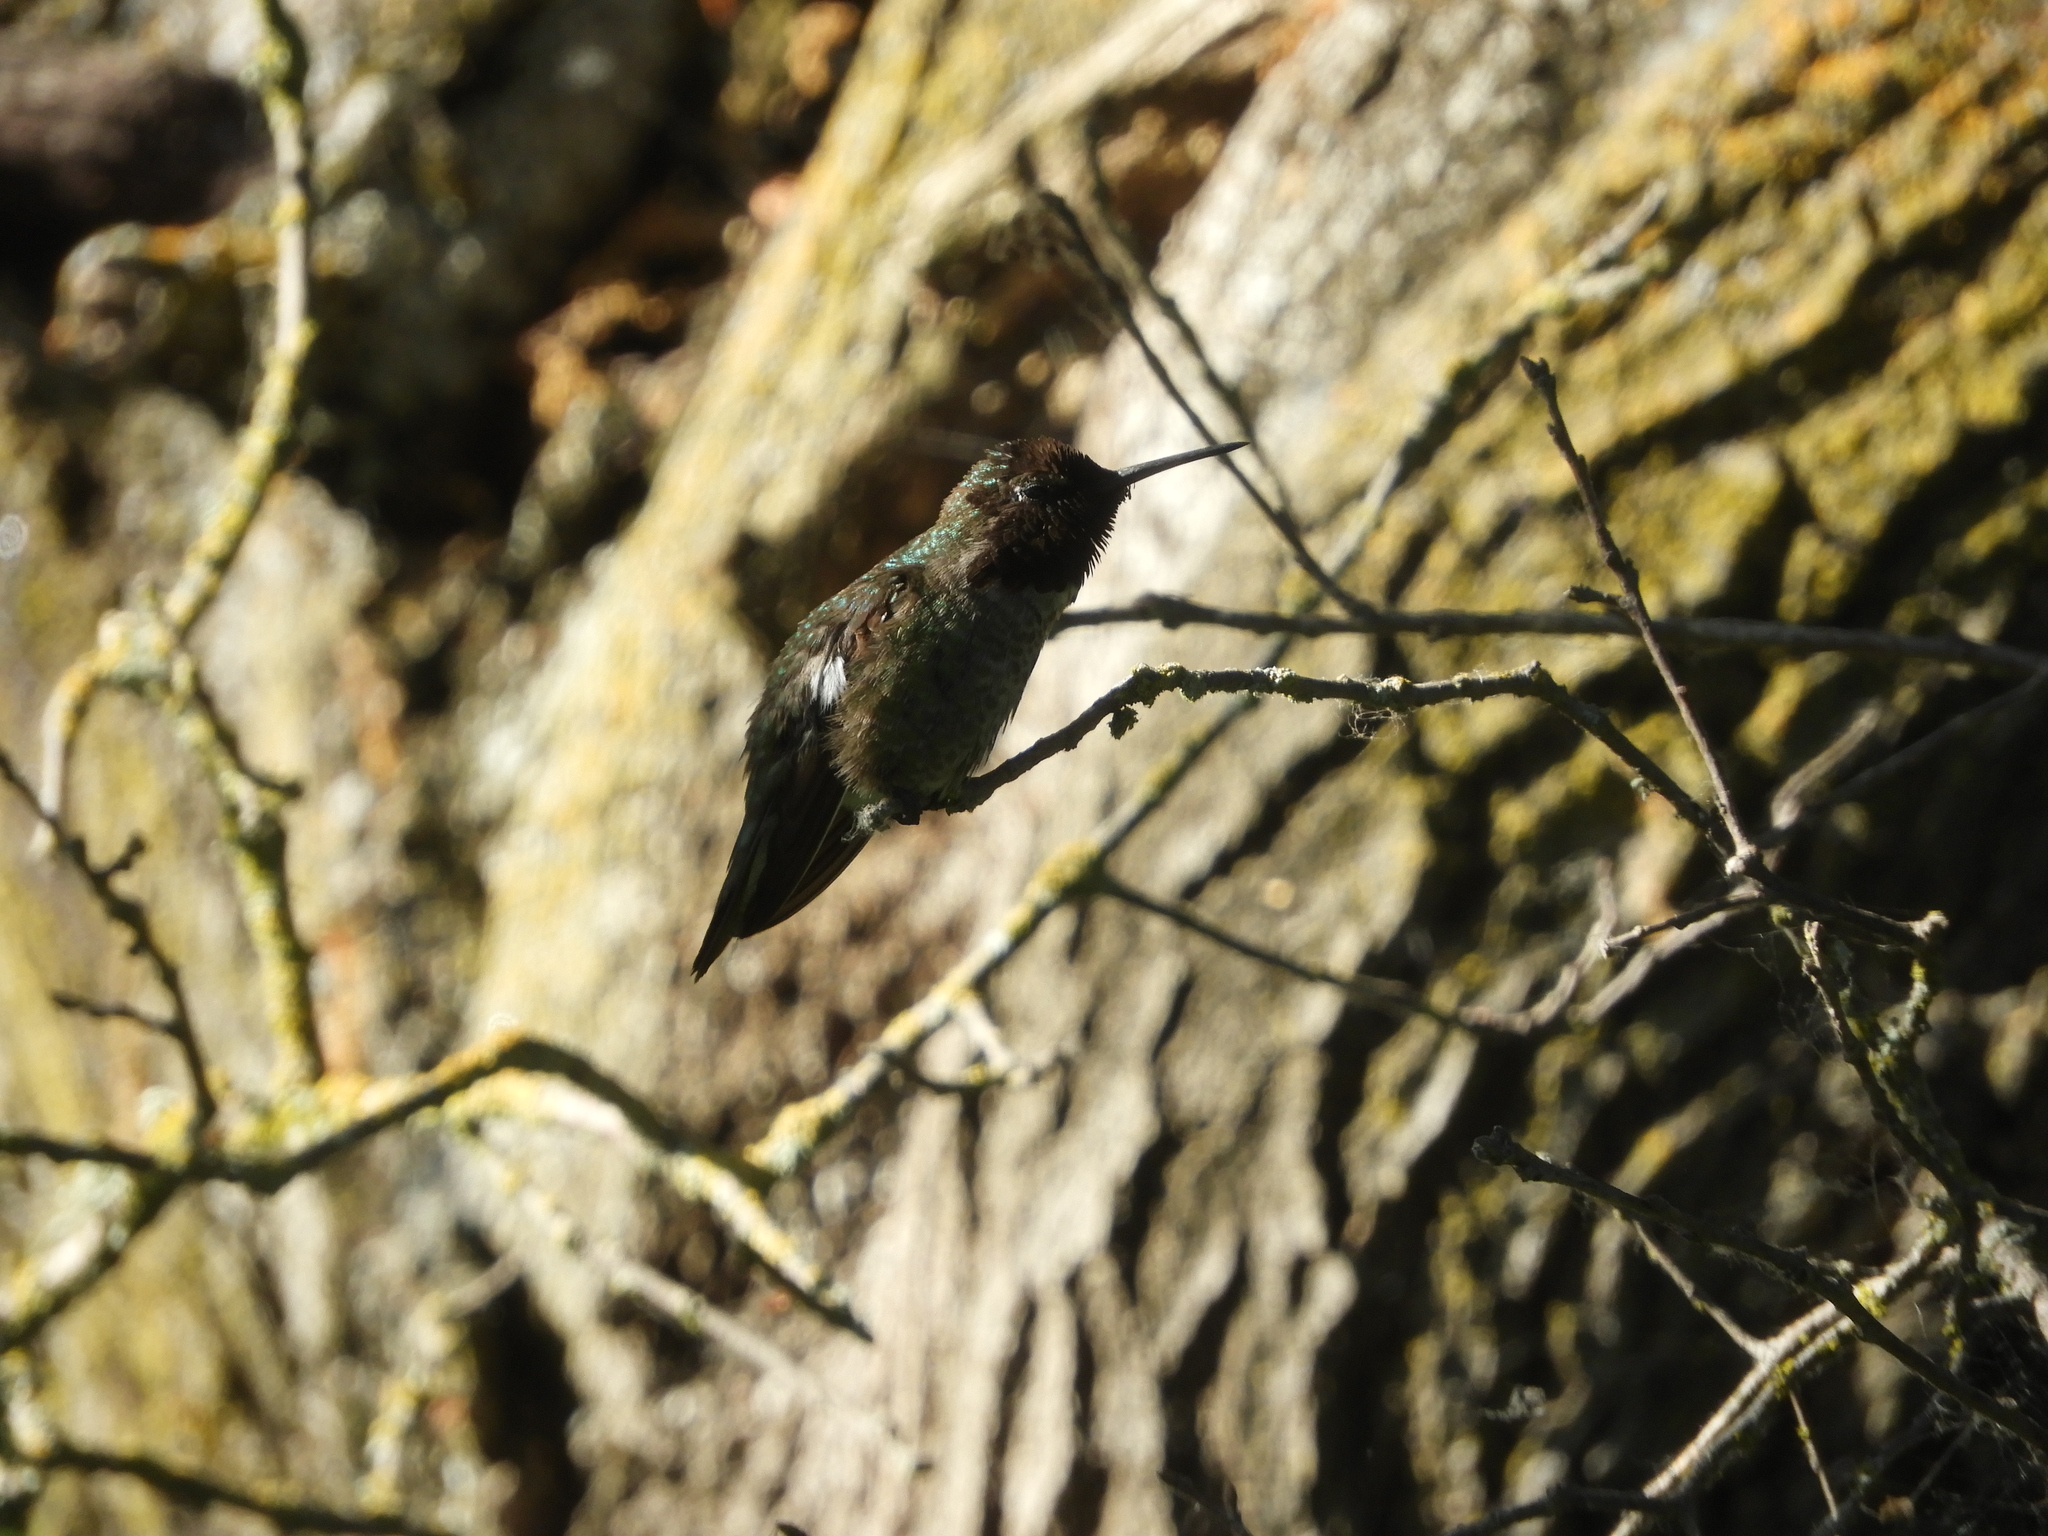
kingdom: Animalia
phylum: Chordata
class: Aves
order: Apodiformes
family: Trochilidae
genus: Calypte
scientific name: Calypte anna
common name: Anna's hummingbird
